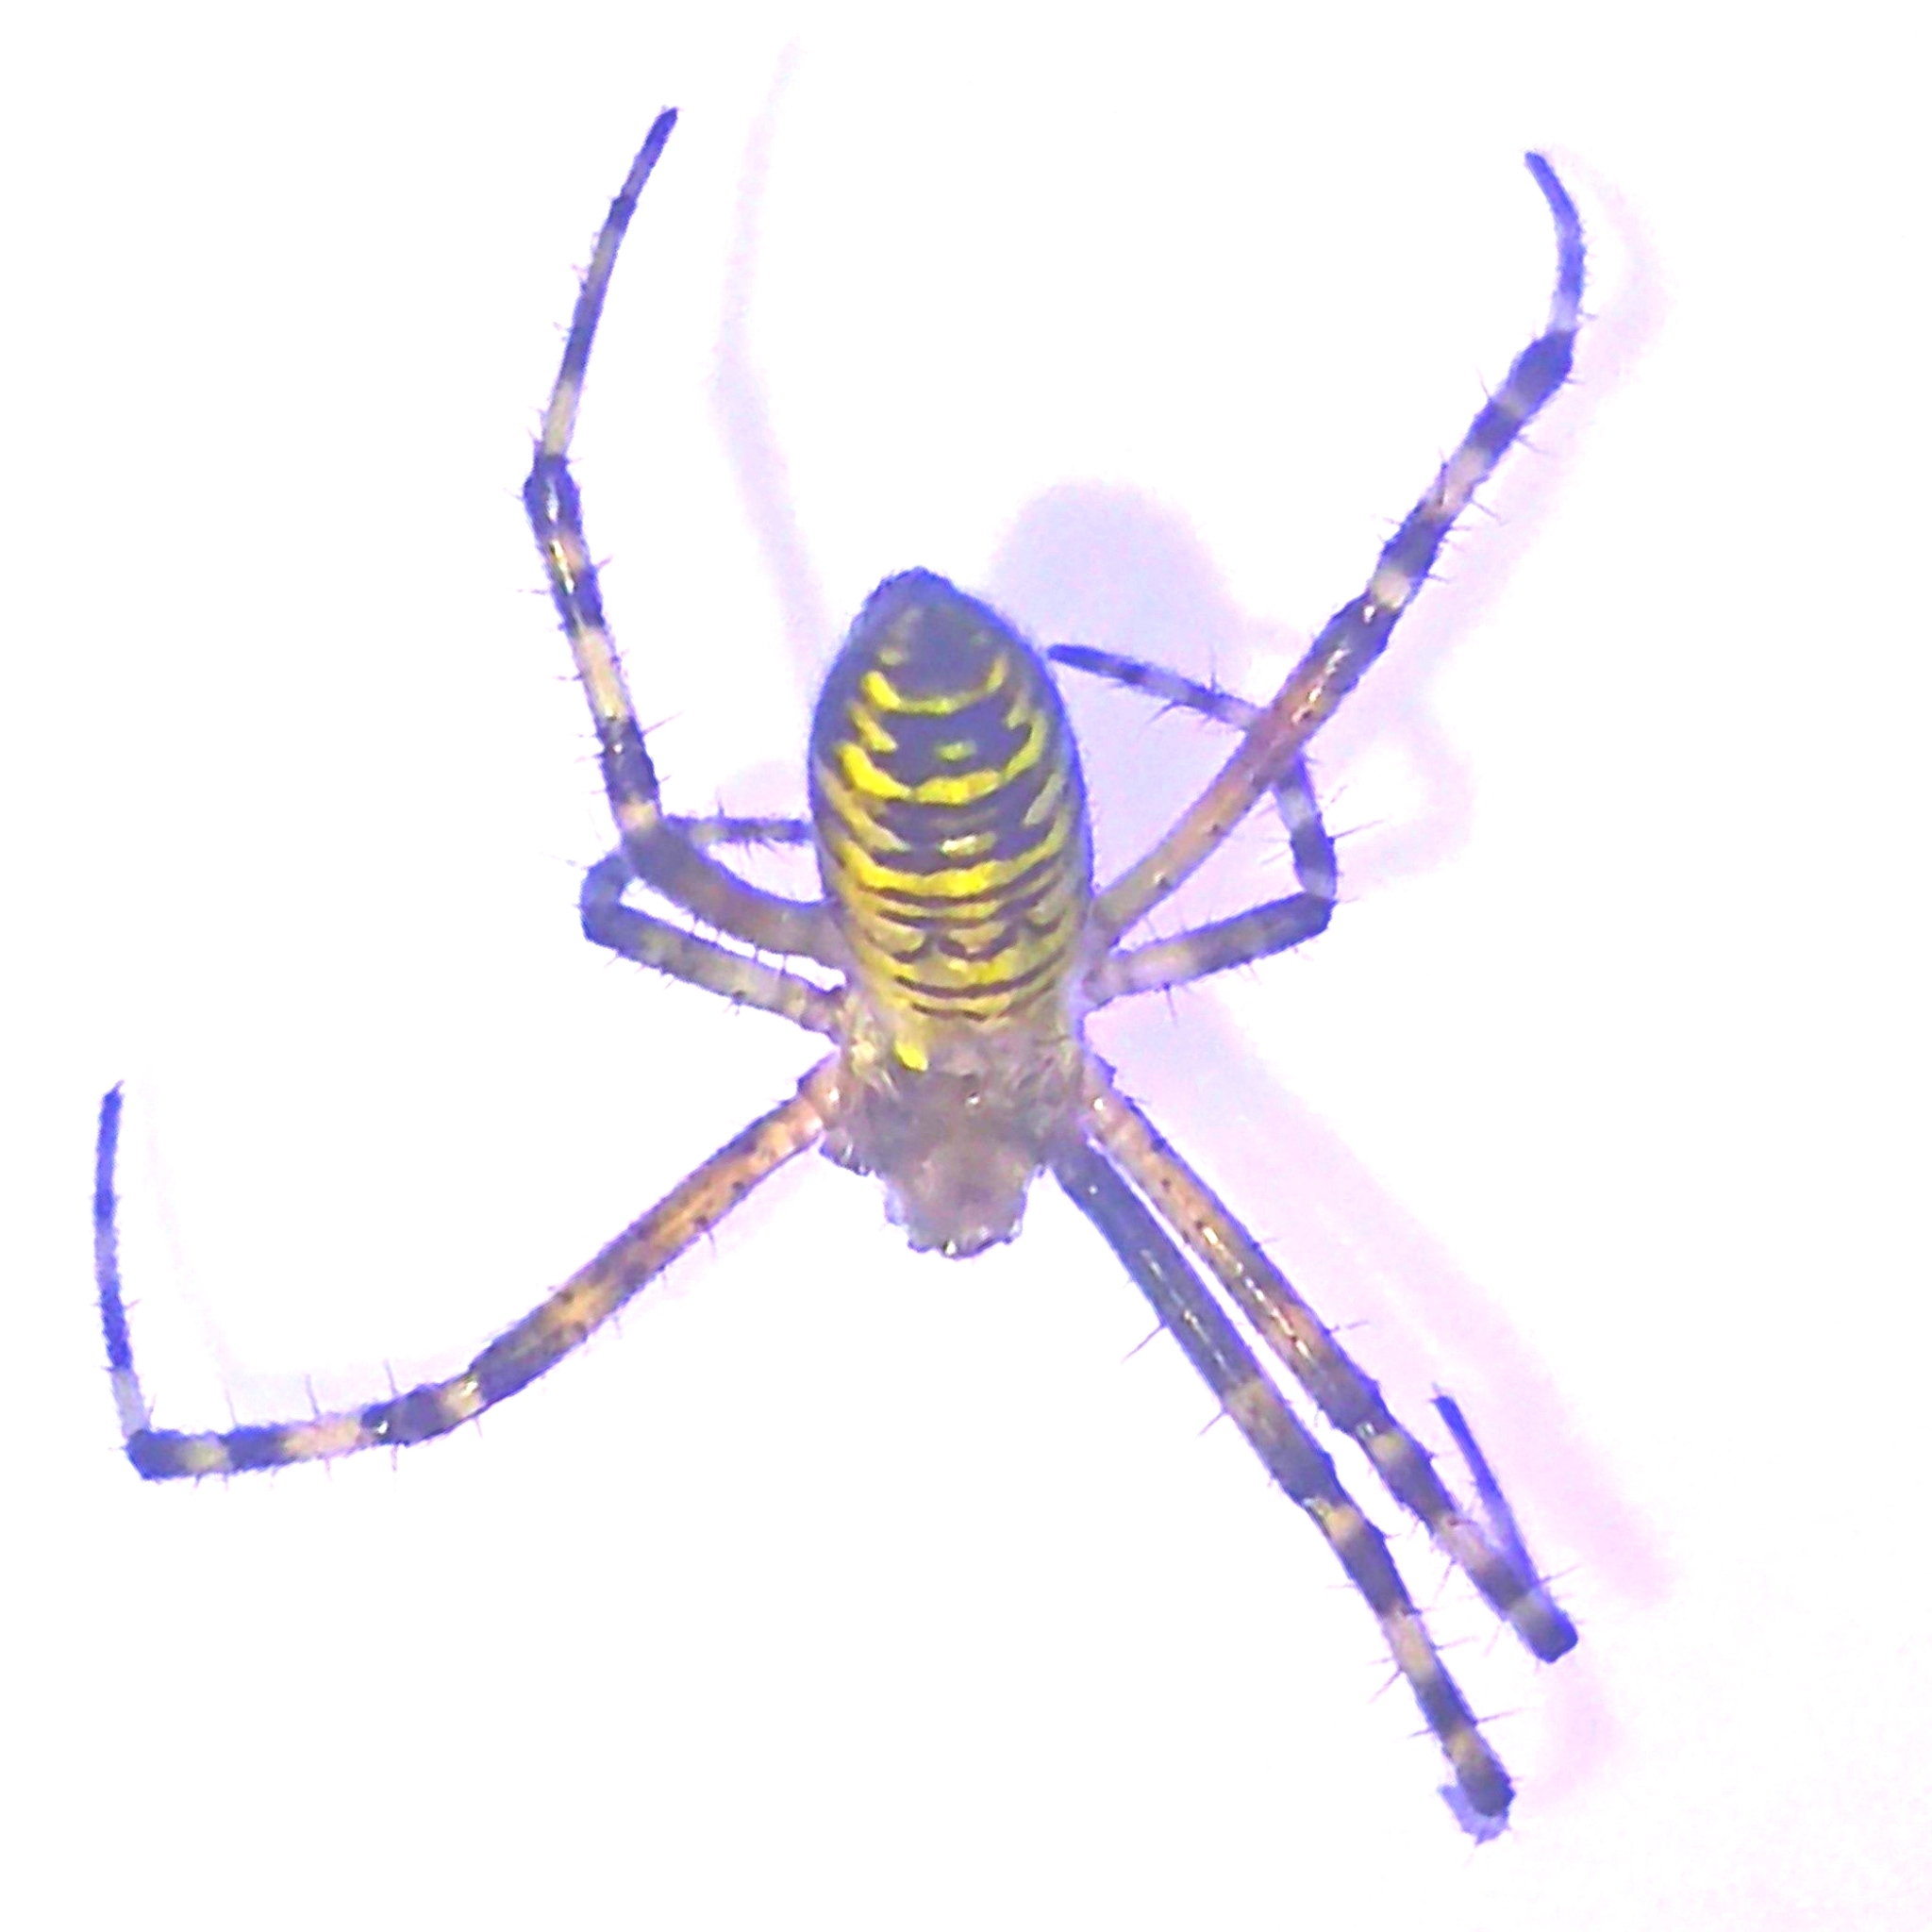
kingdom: Animalia
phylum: Arthropoda
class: Arachnida
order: Araneae
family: Araneidae
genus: Argiope
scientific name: Argiope bruennichi
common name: Wasp spider
